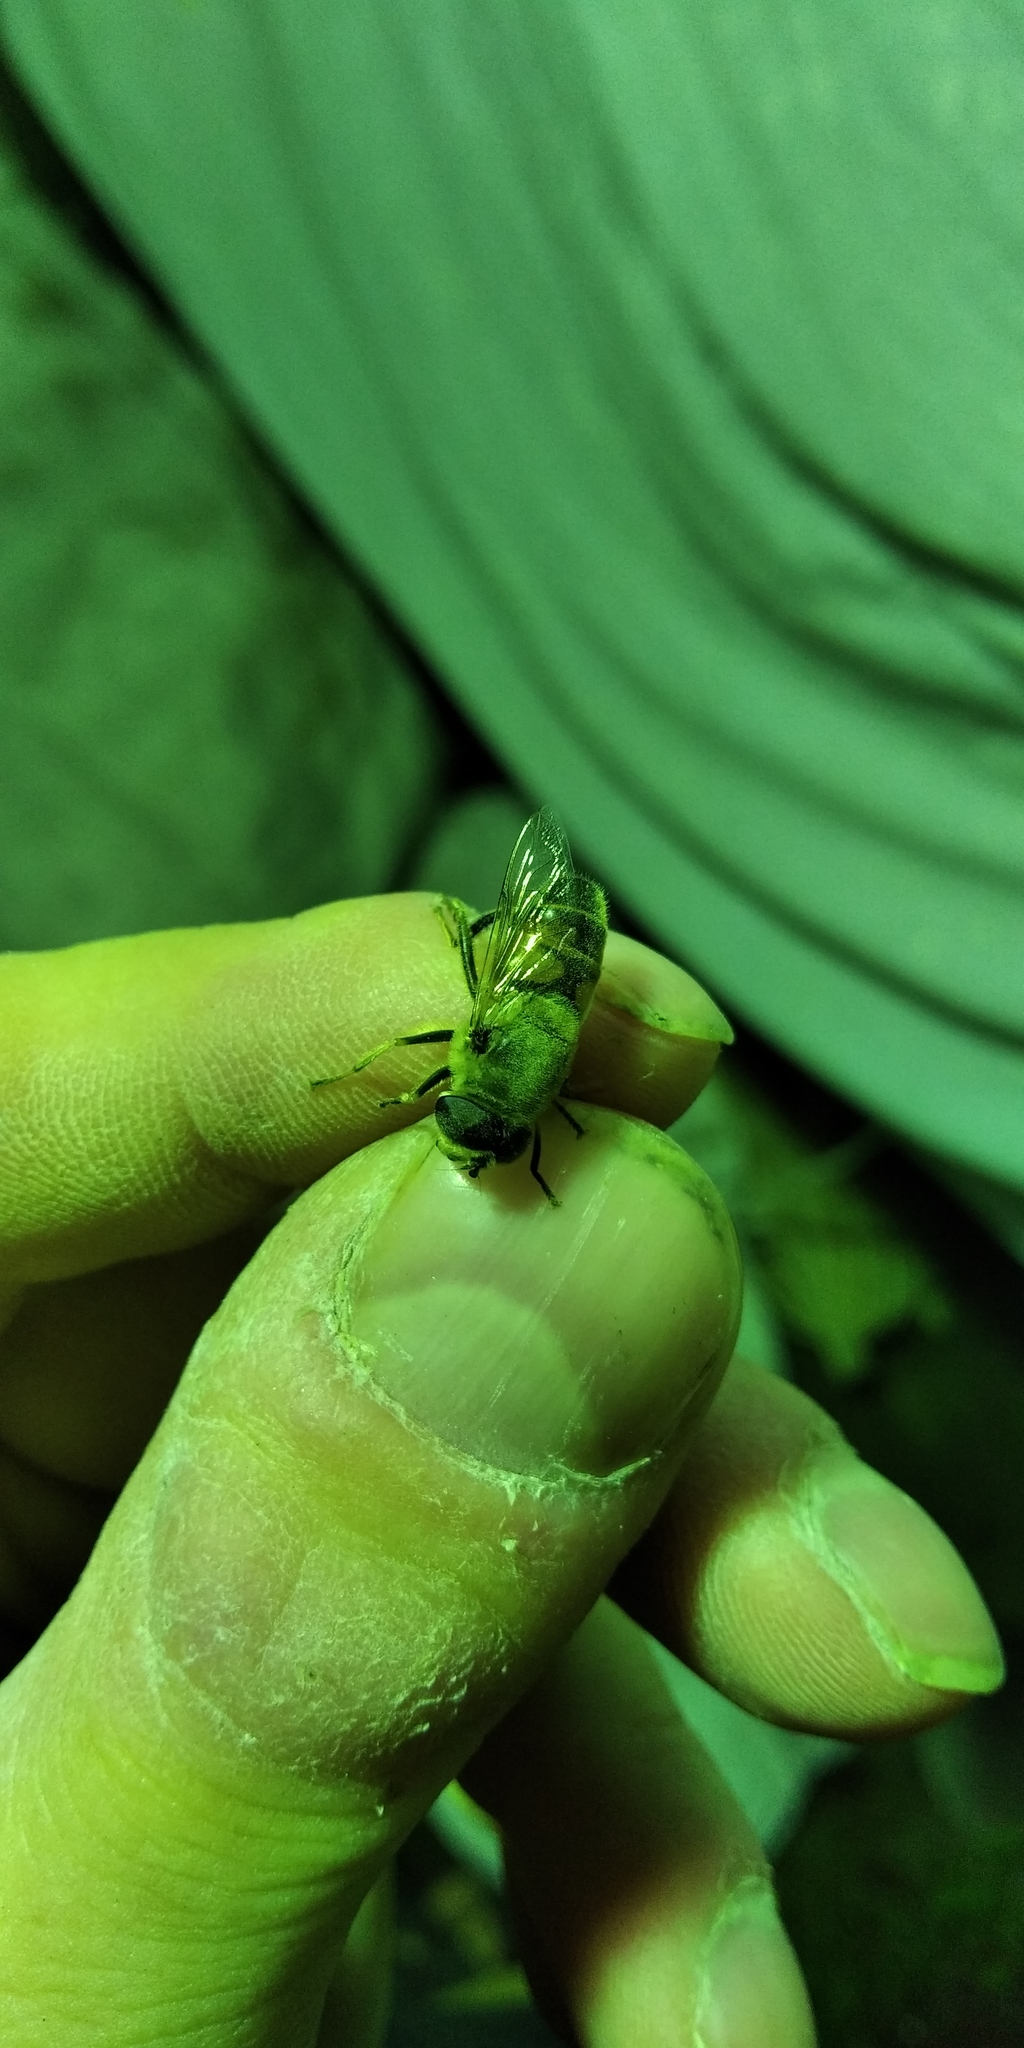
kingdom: Animalia
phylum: Arthropoda
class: Insecta
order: Diptera
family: Syrphidae
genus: Eristalis
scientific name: Eristalis tenax
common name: Drone fly
